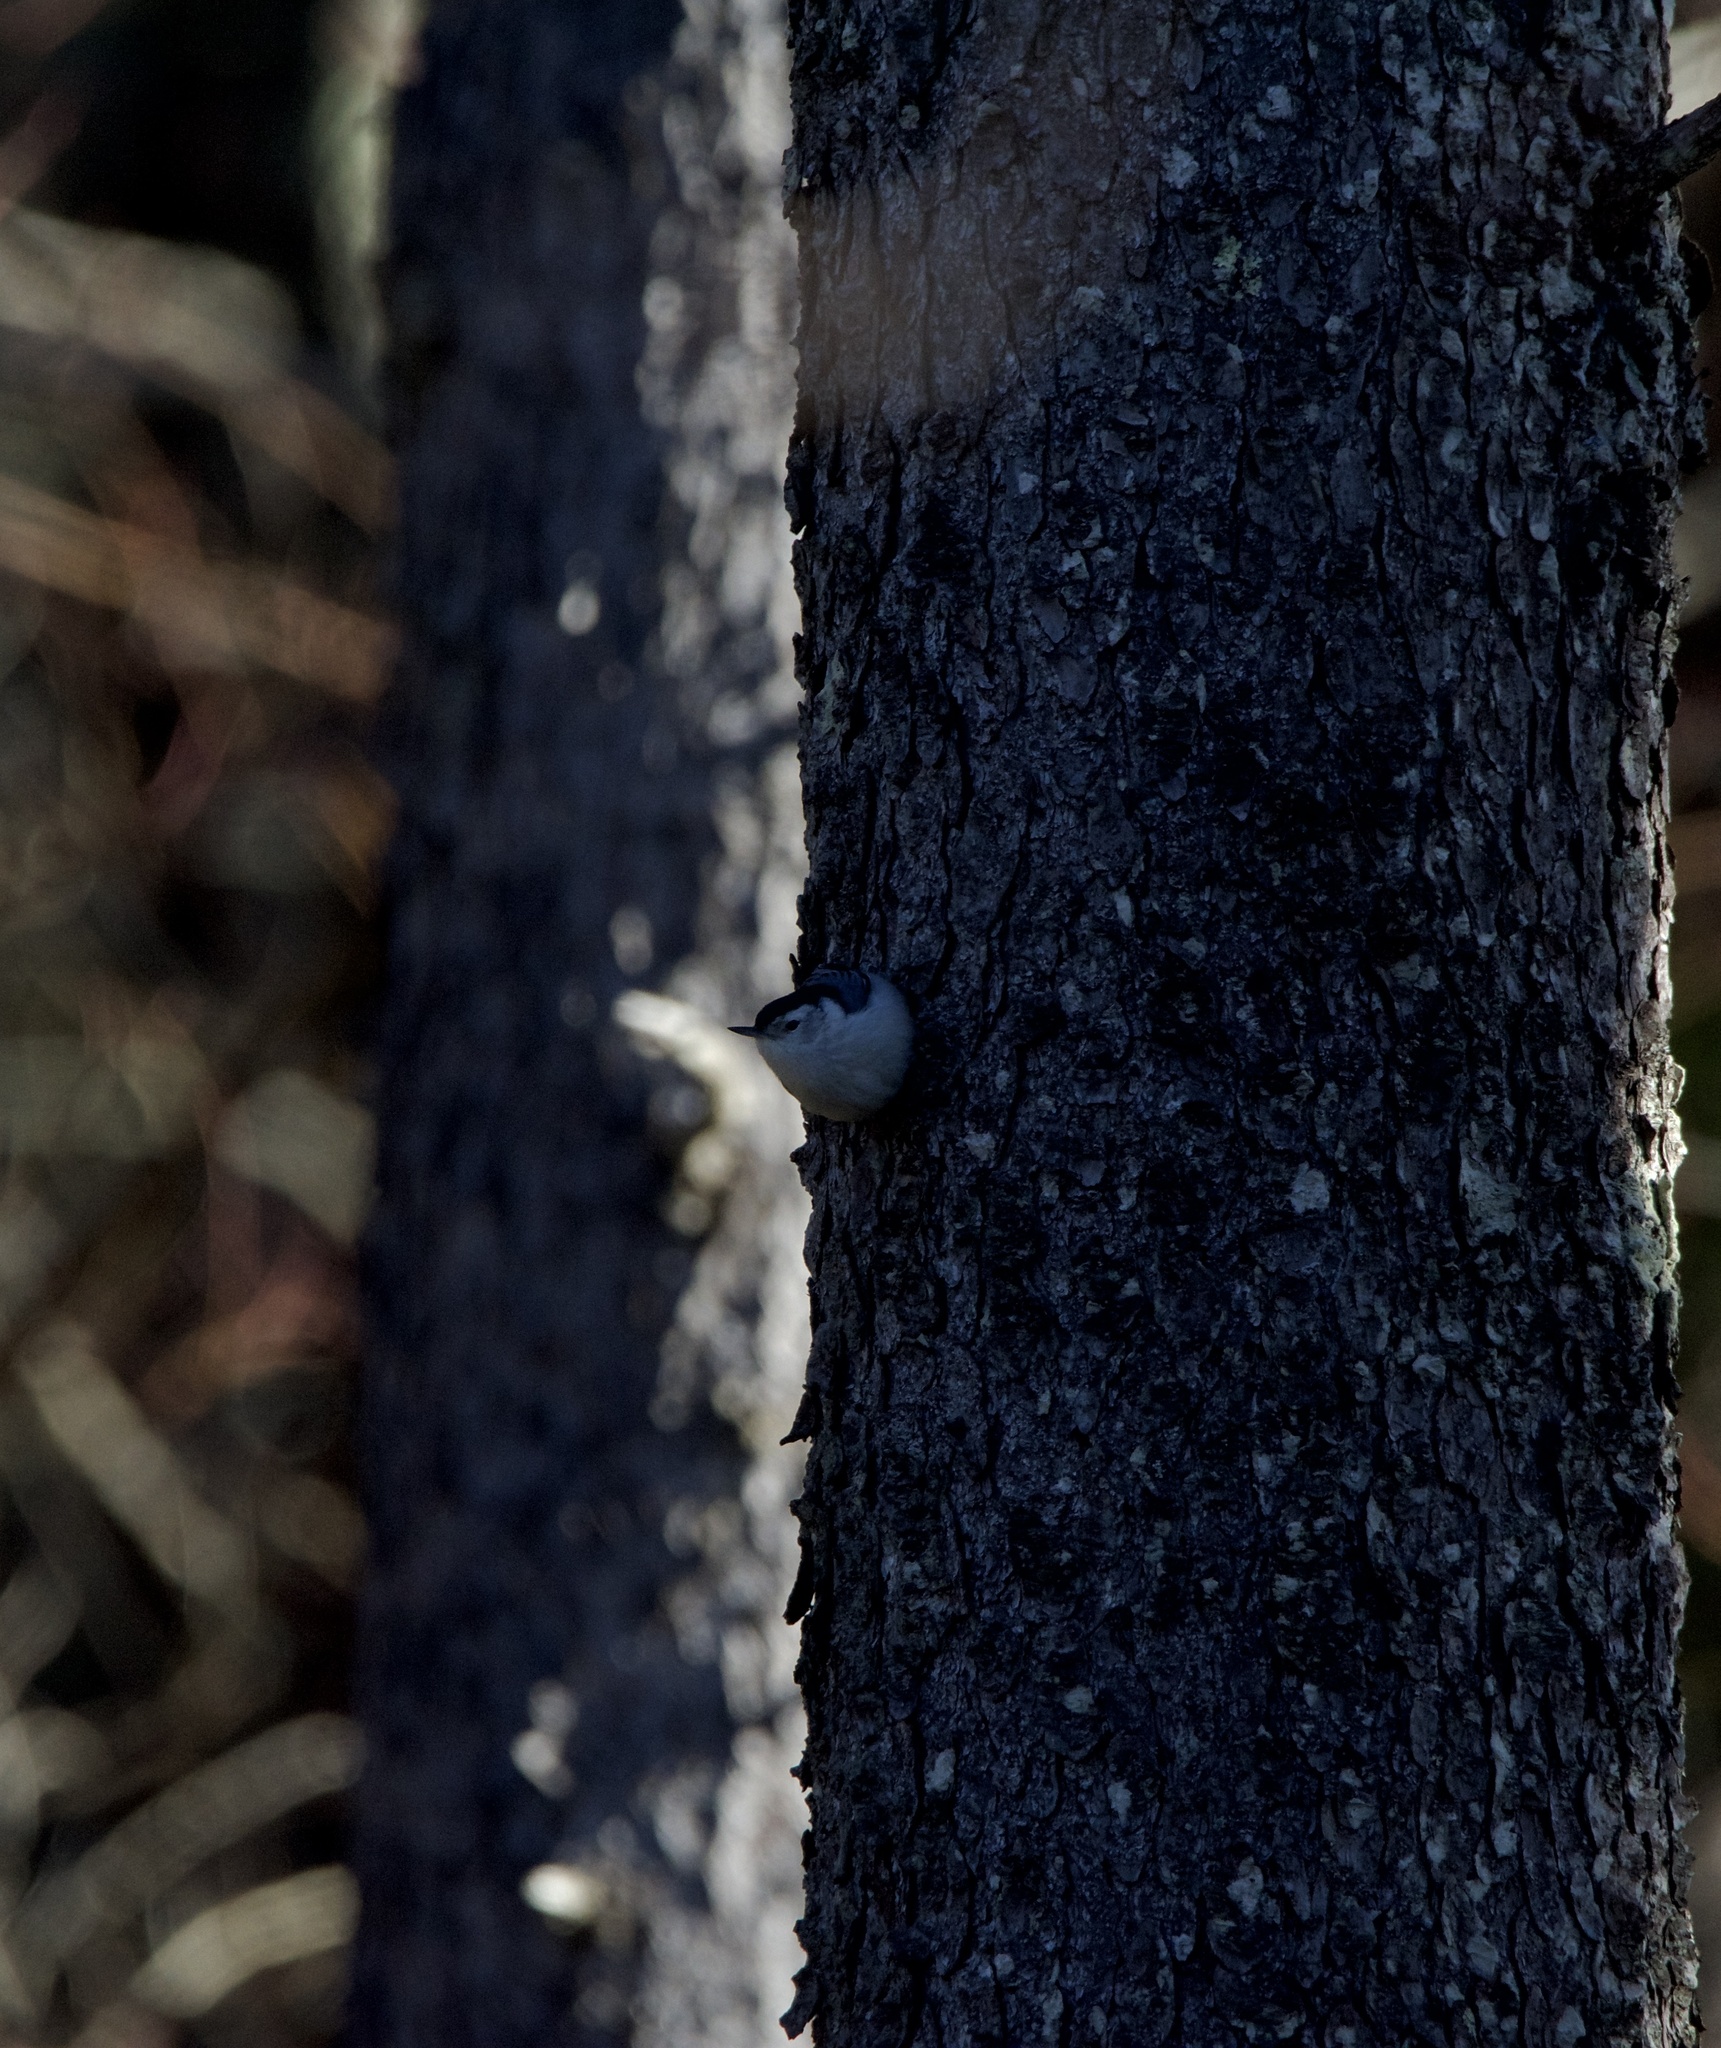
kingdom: Animalia
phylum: Chordata
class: Aves
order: Passeriformes
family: Sittidae
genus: Sitta
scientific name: Sitta carolinensis
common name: White-breasted nuthatch
